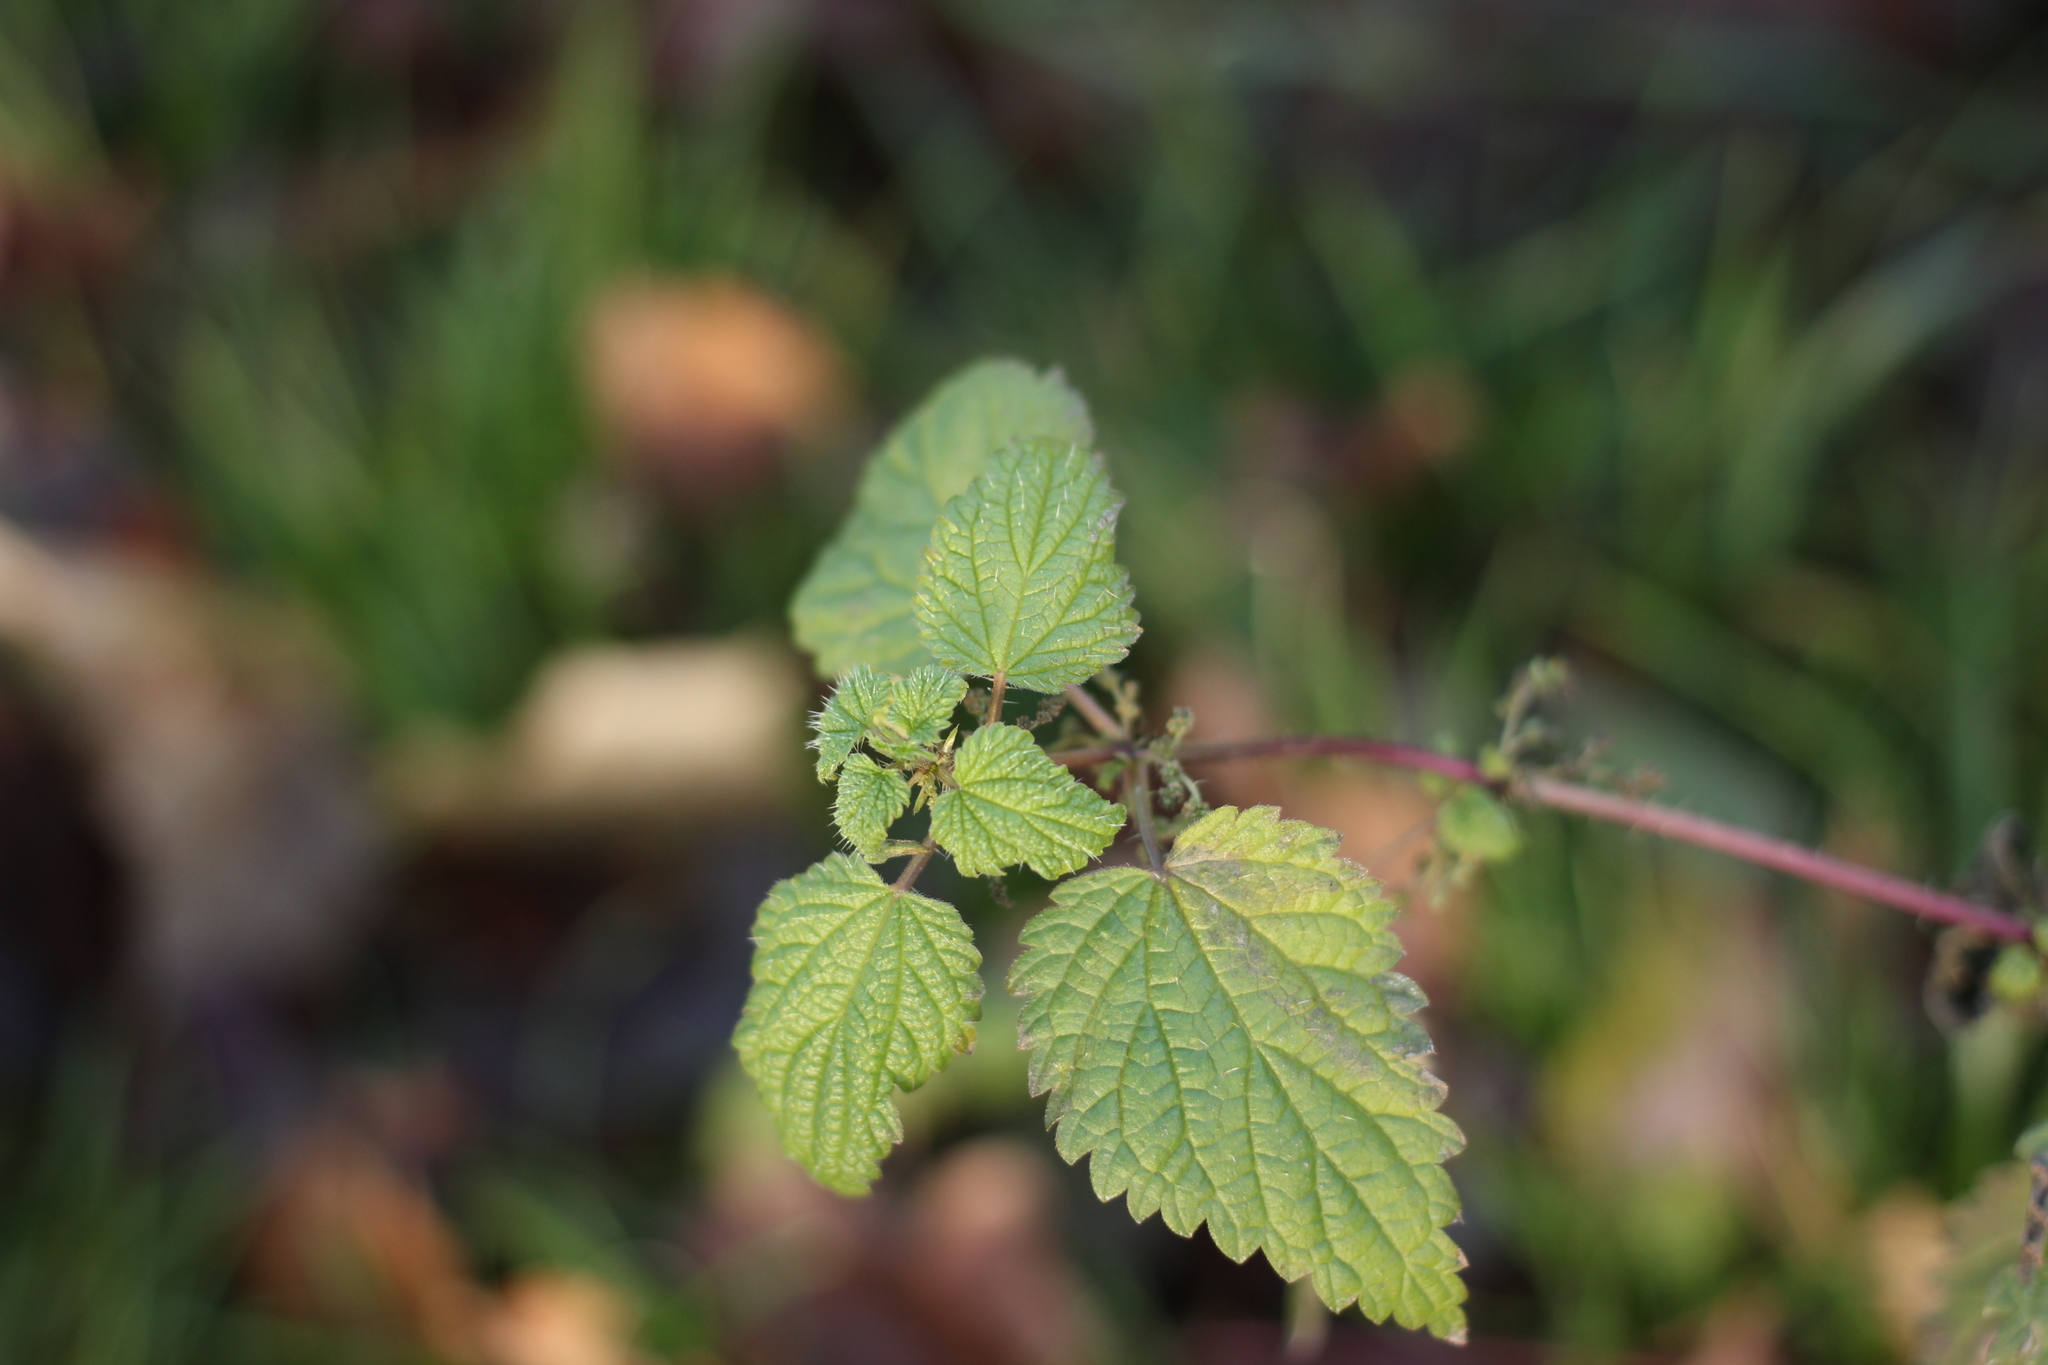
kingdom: Plantae
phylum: Tracheophyta
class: Magnoliopsida
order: Rosales
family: Urticaceae
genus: Urtica
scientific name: Urtica dioica
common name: Common nettle
